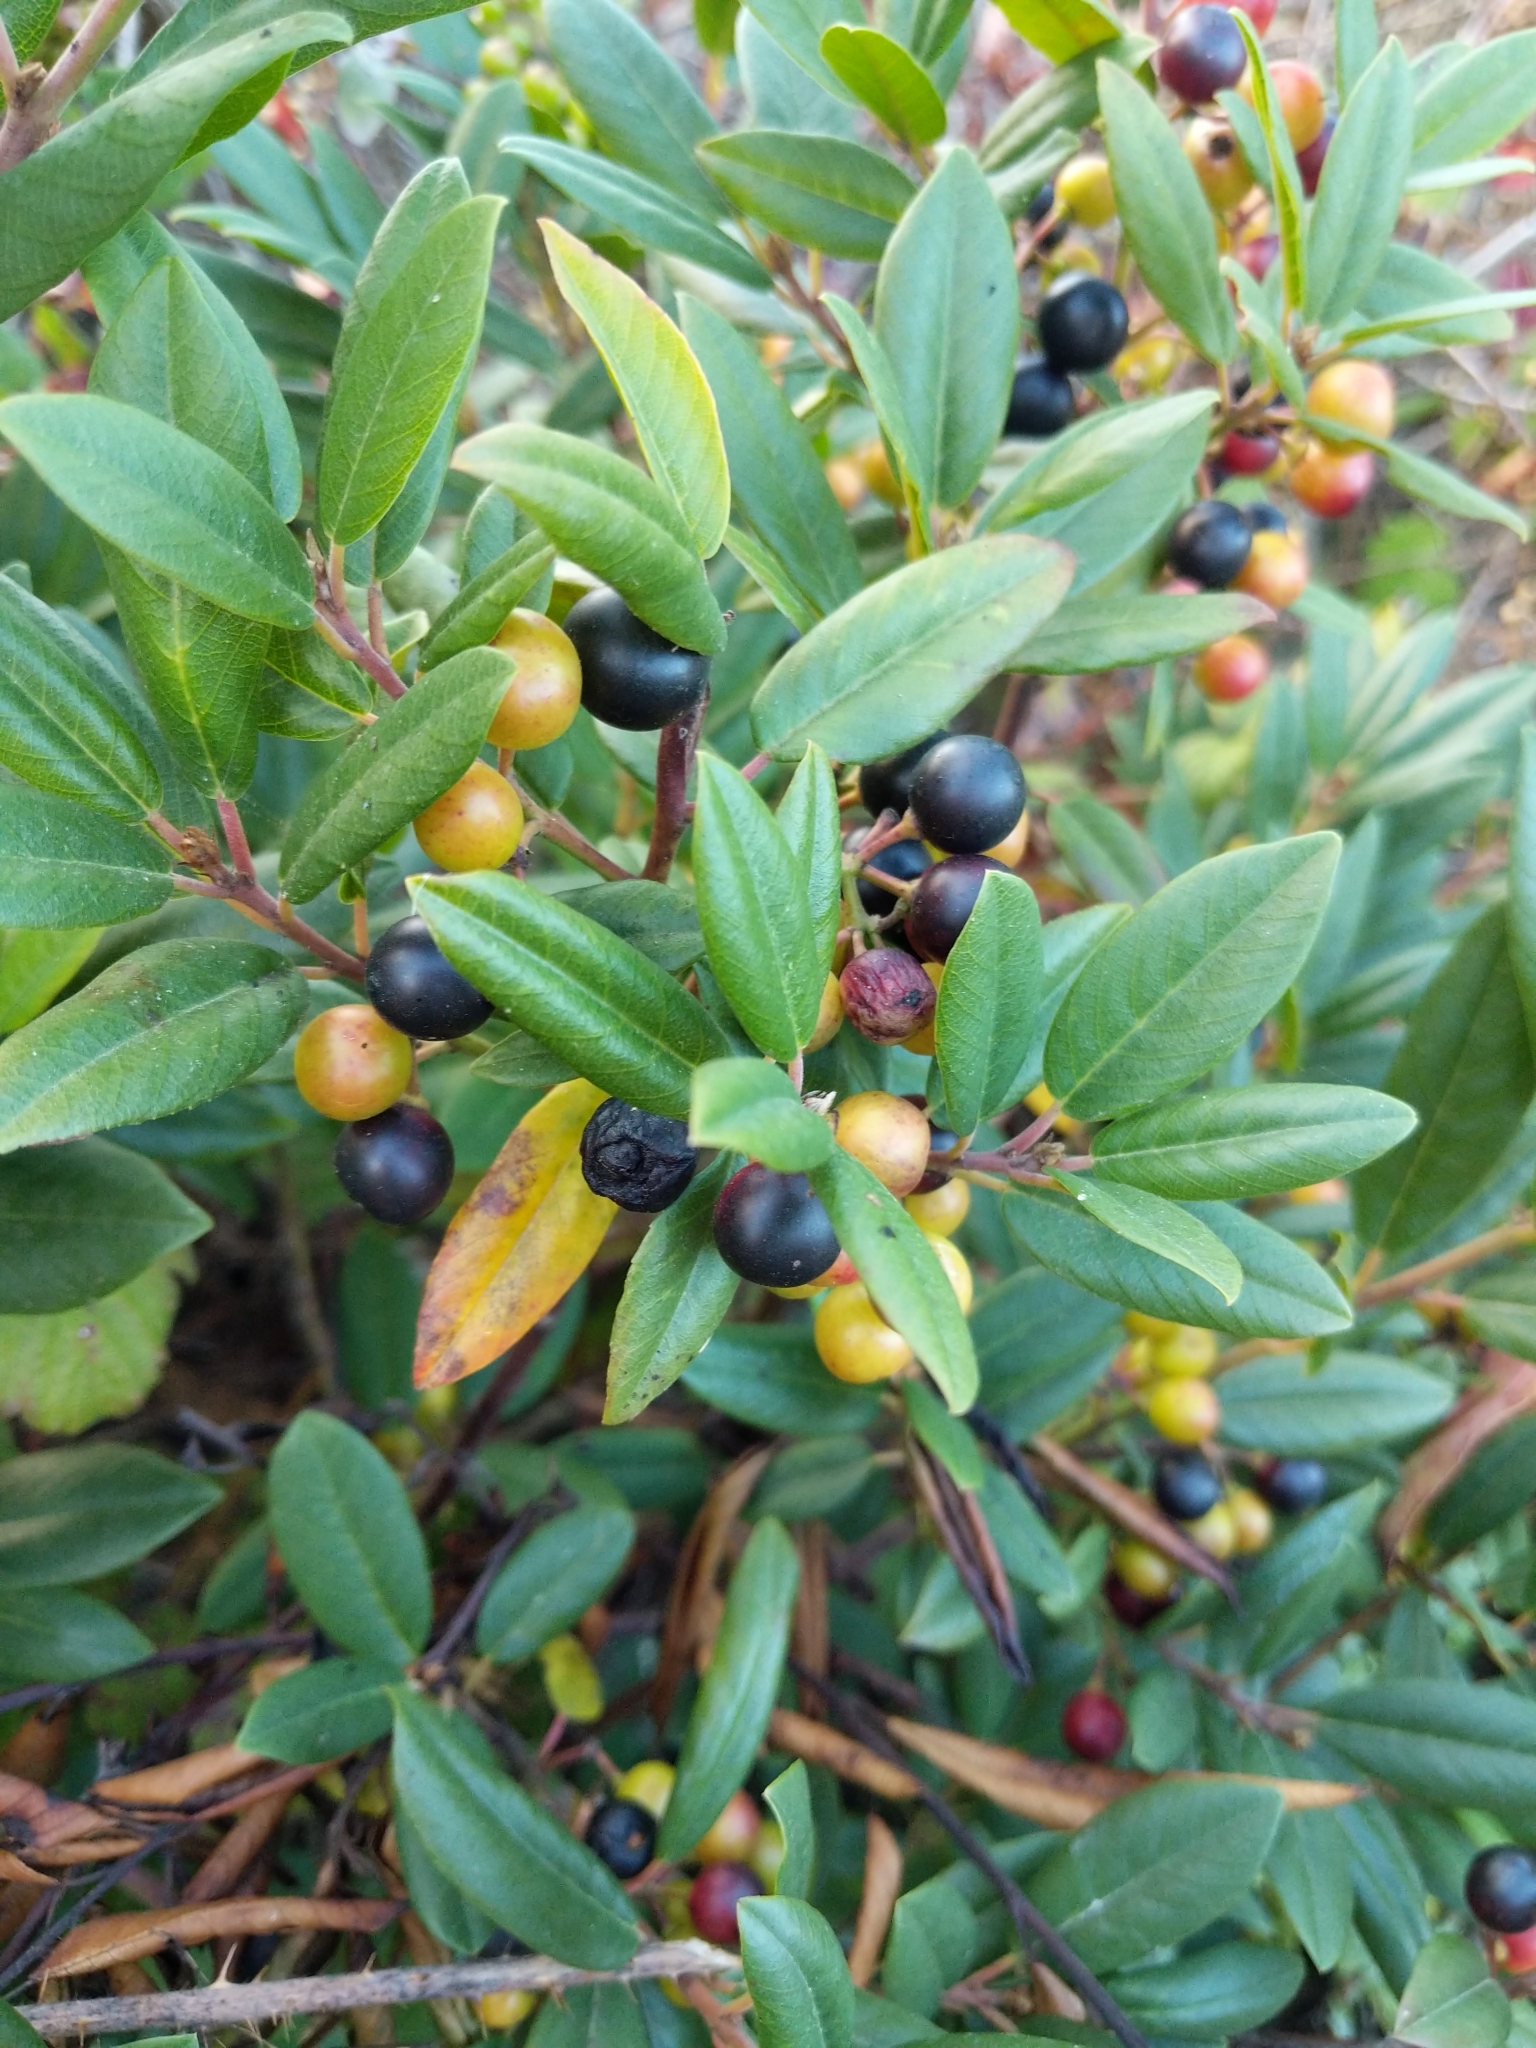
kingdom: Plantae
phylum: Tracheophyta
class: Magnoliopsida
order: Rosales
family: Rhamnaceae
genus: Frangula
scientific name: Frangula californica
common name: California buckthorn
